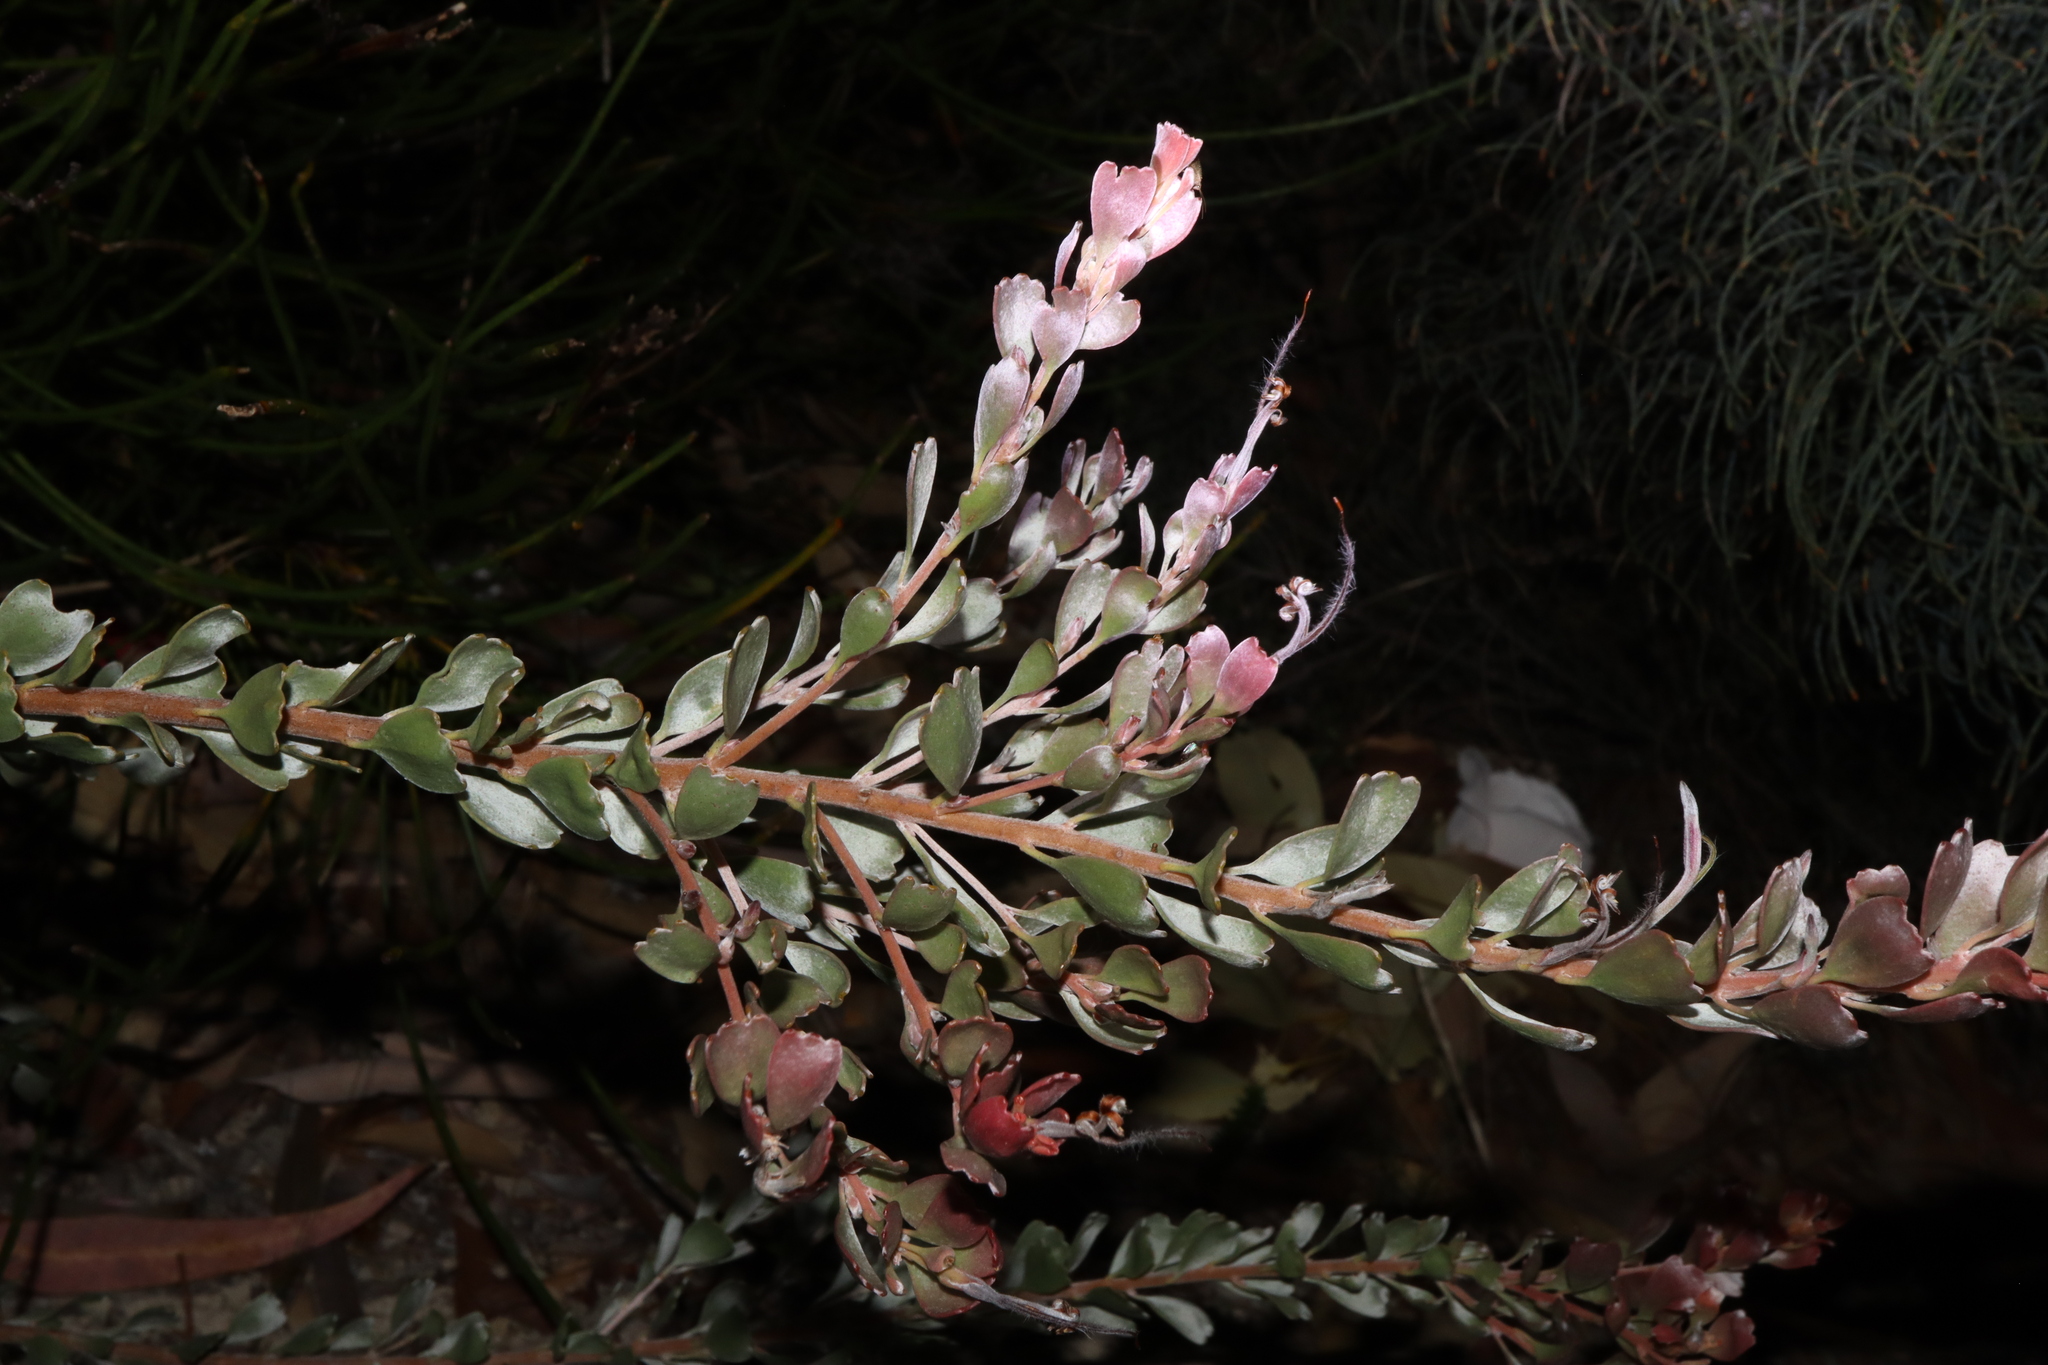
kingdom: Plantae
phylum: Tracheophyta
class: Magnoliopsida
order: Proteales
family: Proteaceae
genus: Adenanthos
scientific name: Adenanthos cuneatus
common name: Flamebush
